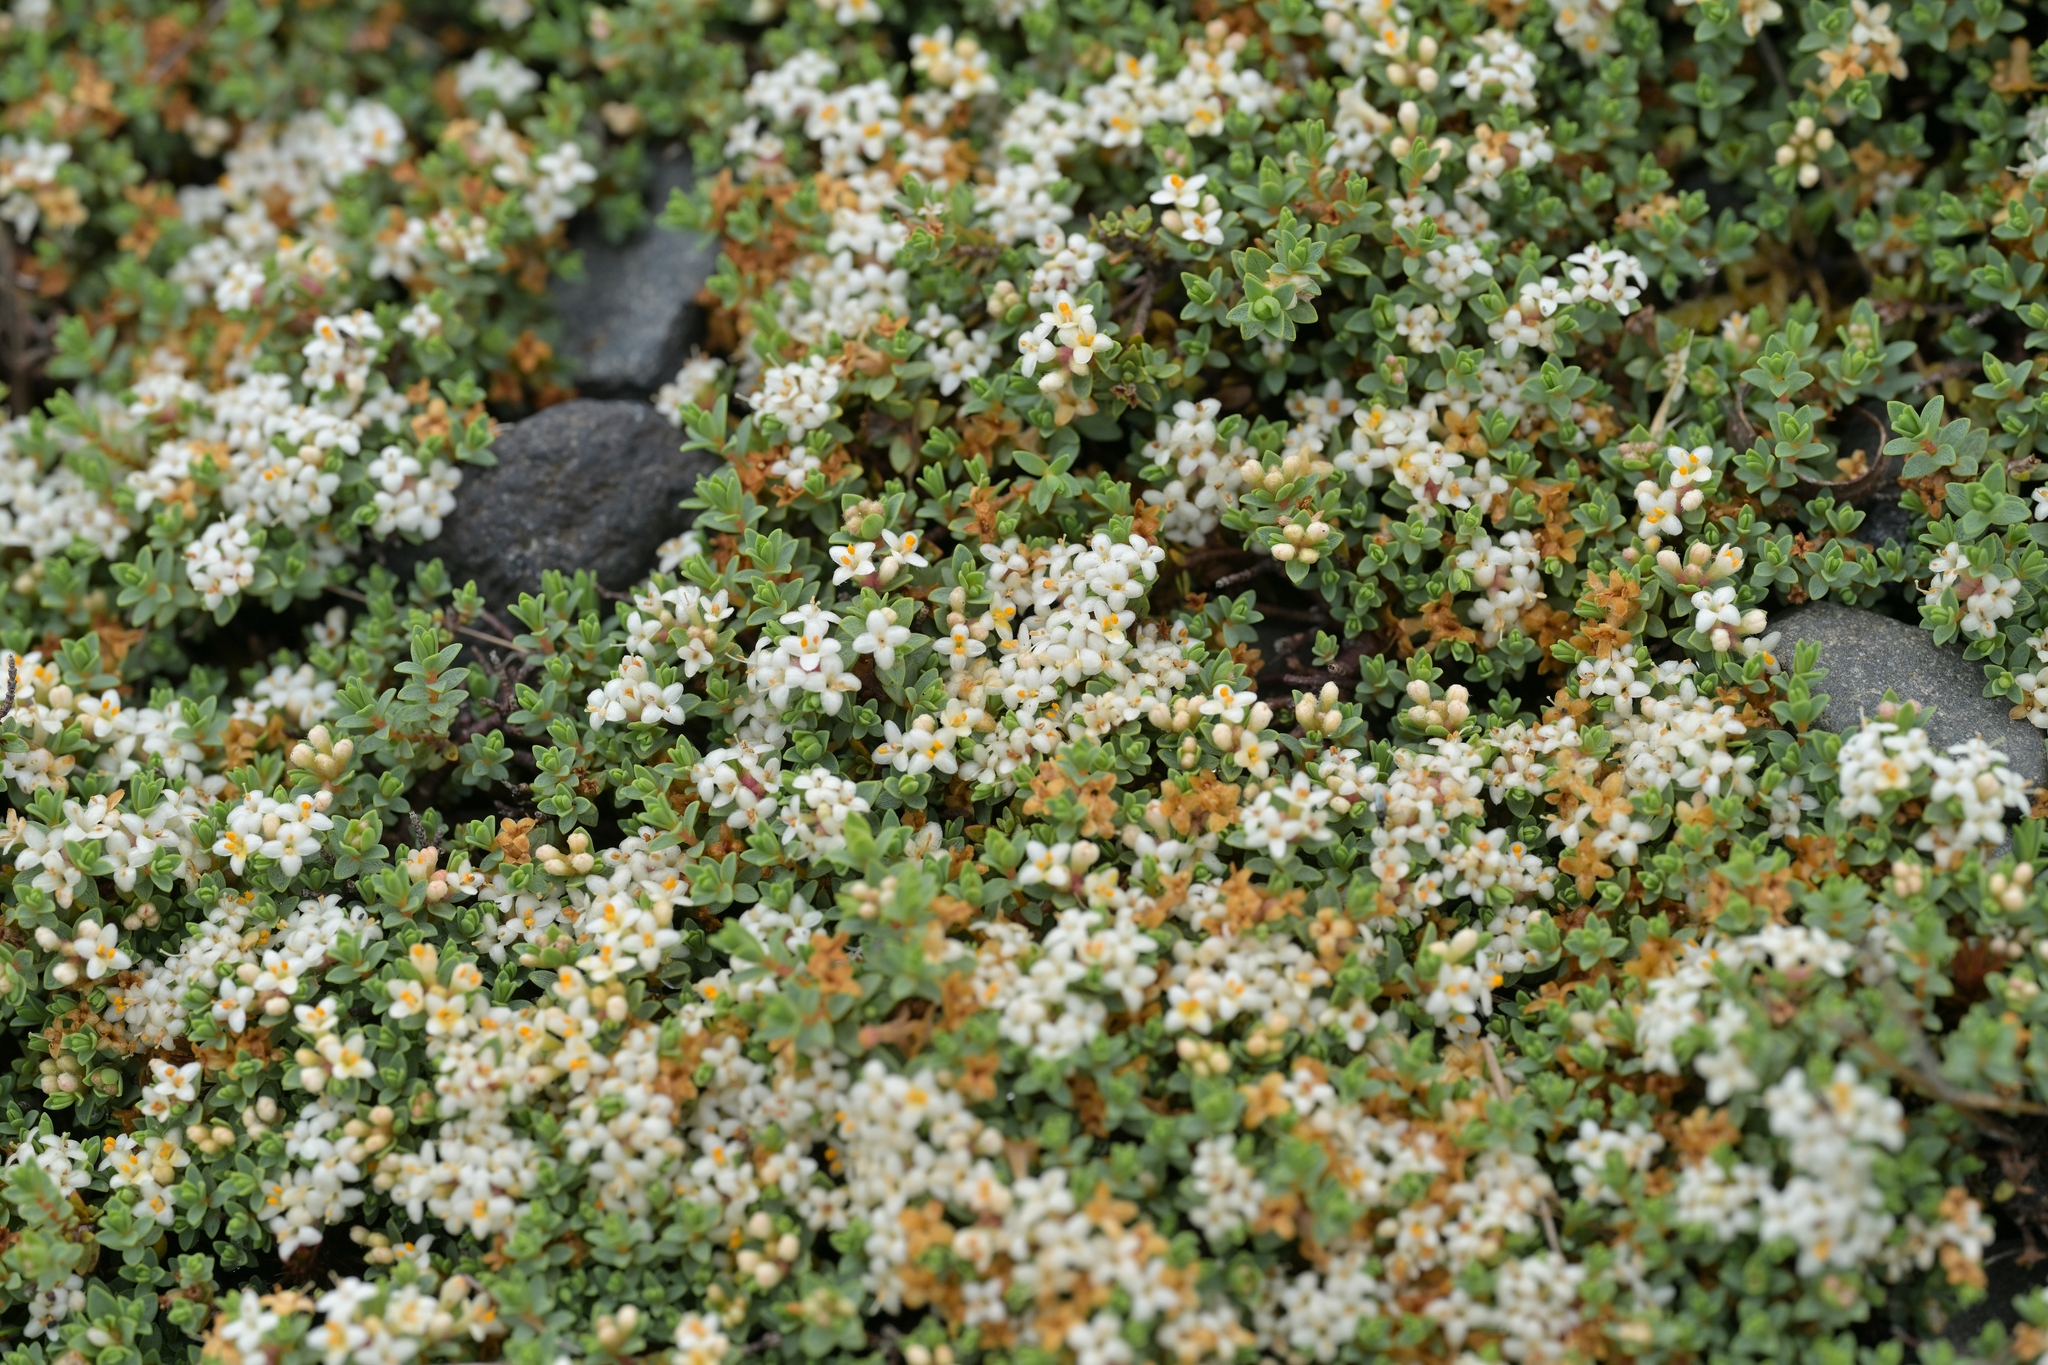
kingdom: Plantae
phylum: Tracheophyta
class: Magnoliopsida
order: Malvales
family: Thymelaeaceae
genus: Pimelea
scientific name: Pimelea prostrata
